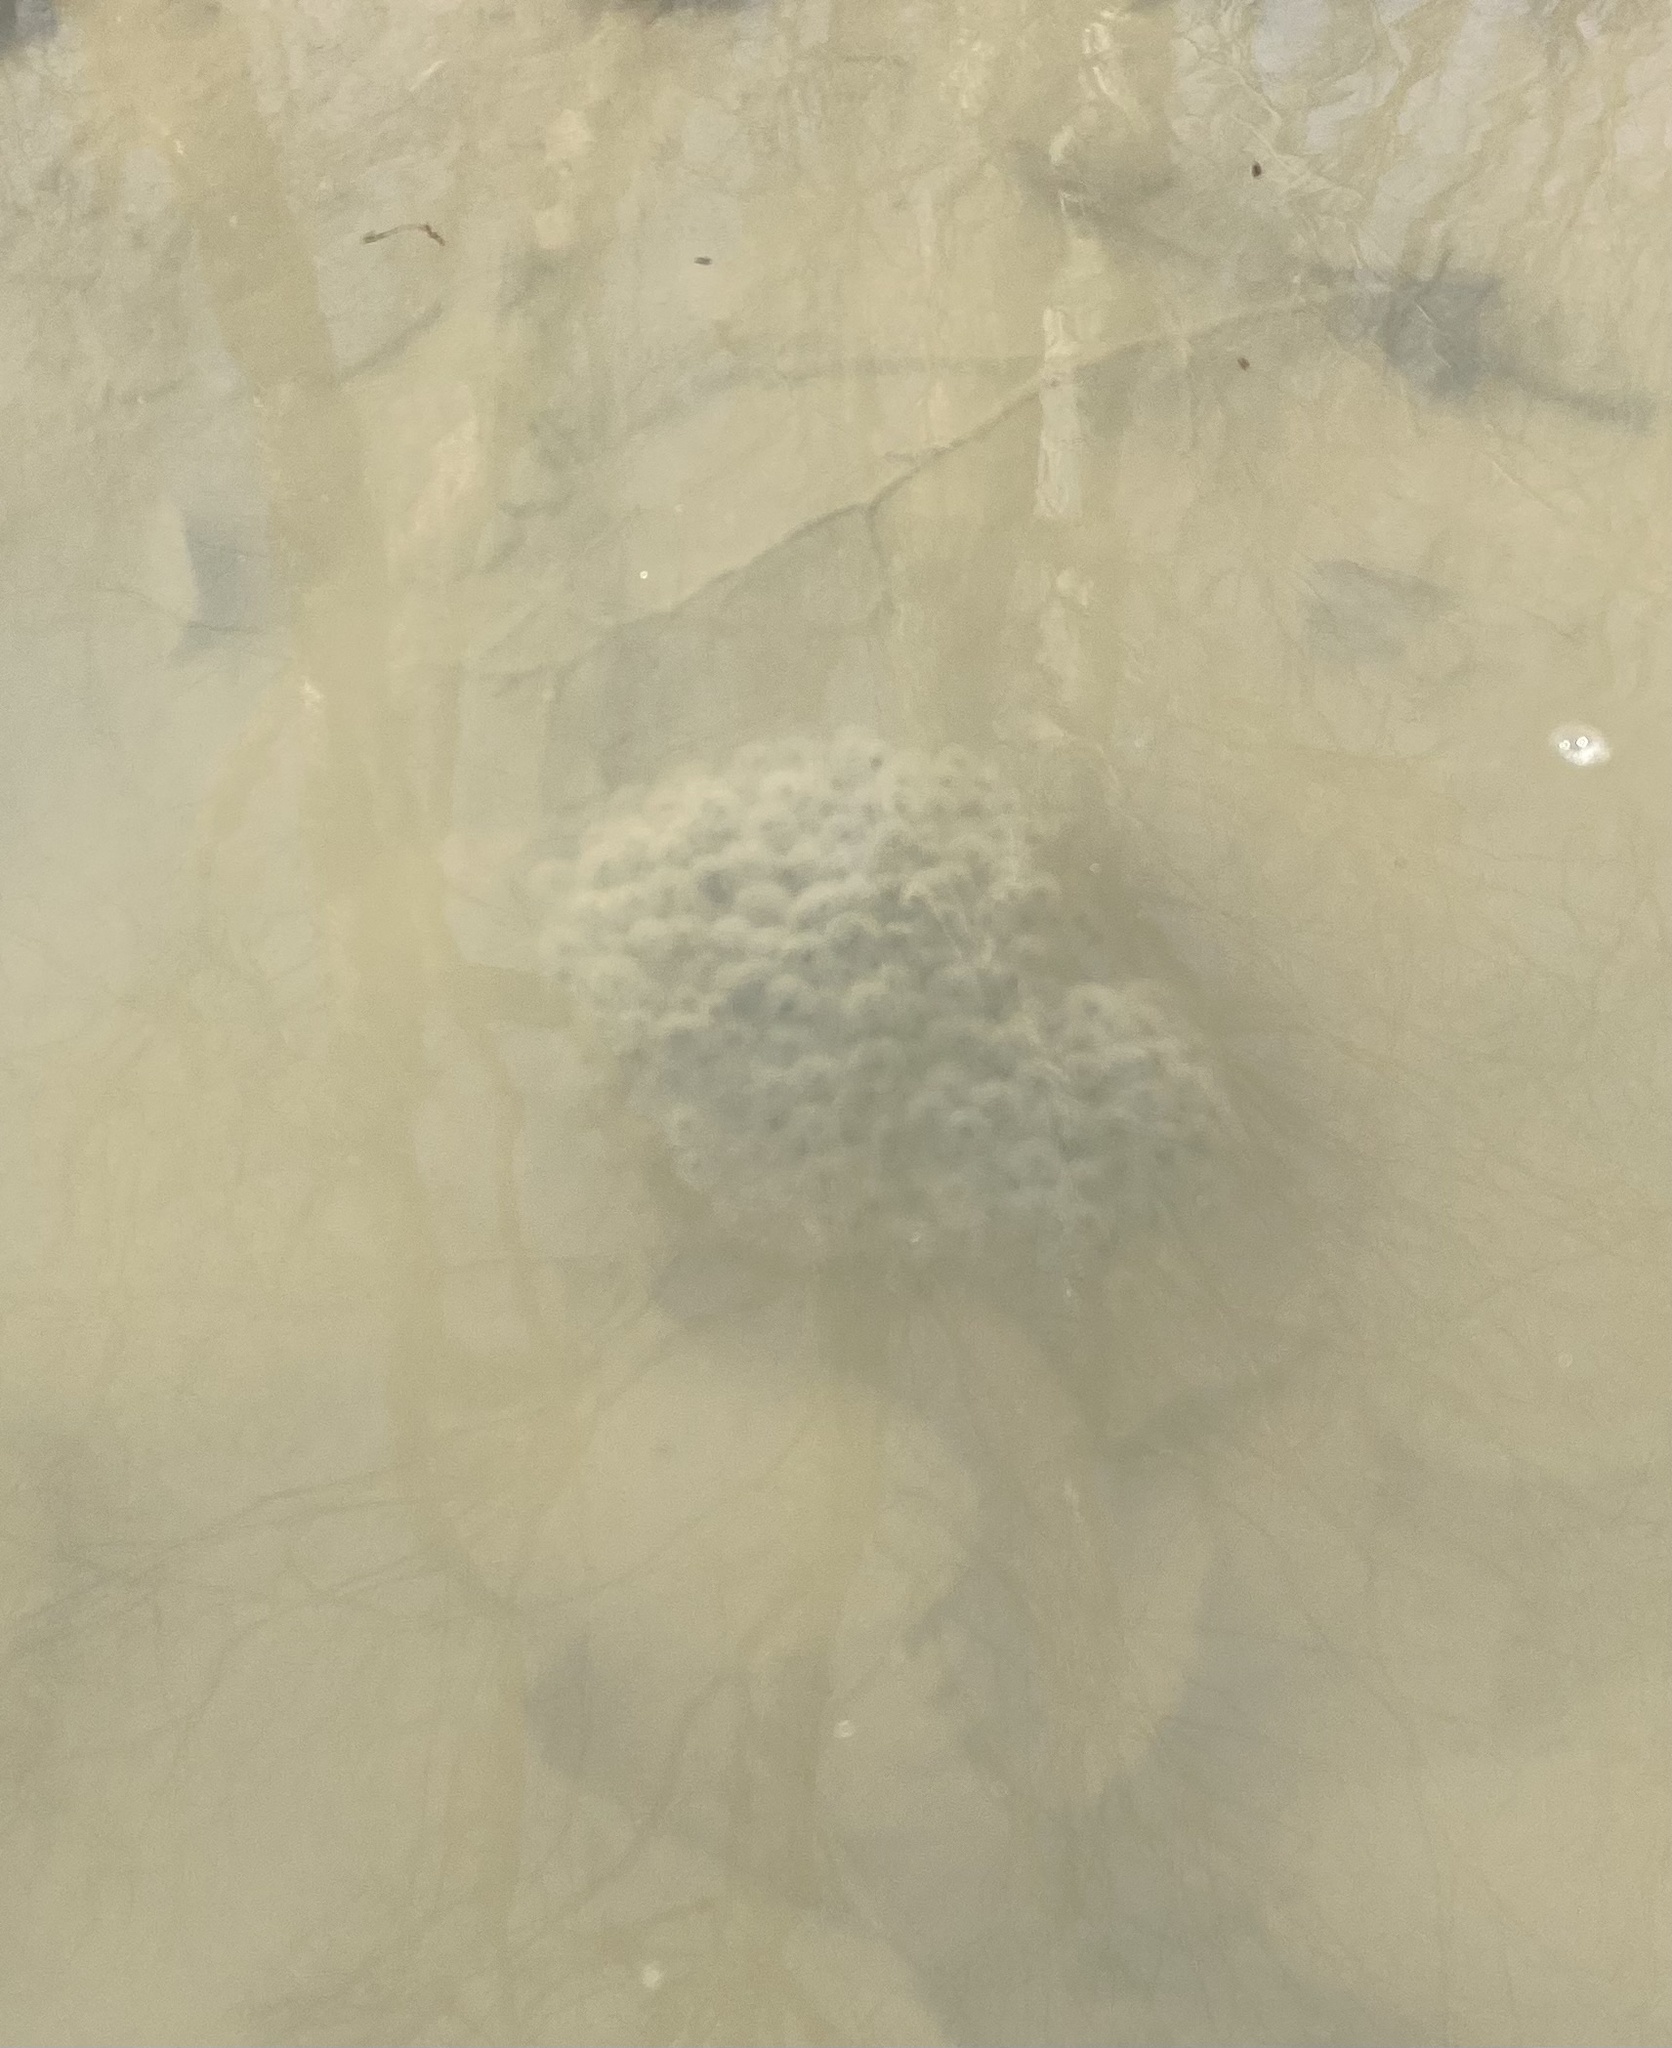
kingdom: Animalia
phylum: Chordata
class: Amphibia
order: Anura
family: Ranidae
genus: Rana
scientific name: Rana macrocnemis
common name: Banded frog
